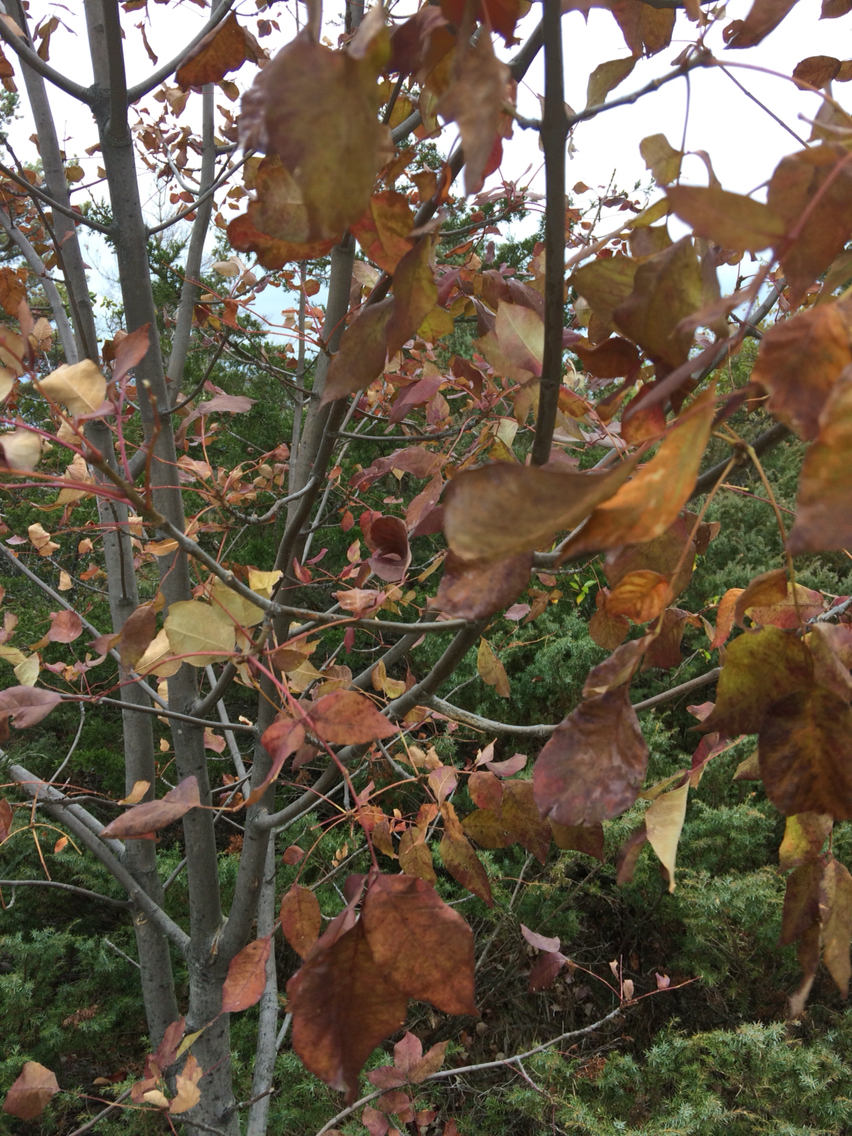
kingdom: Plantae
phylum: Tracheophyta
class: Magnoliopsida
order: Lamiales
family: Oleaceae
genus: Fraxinus
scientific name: Fraxinus americana
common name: White ash
